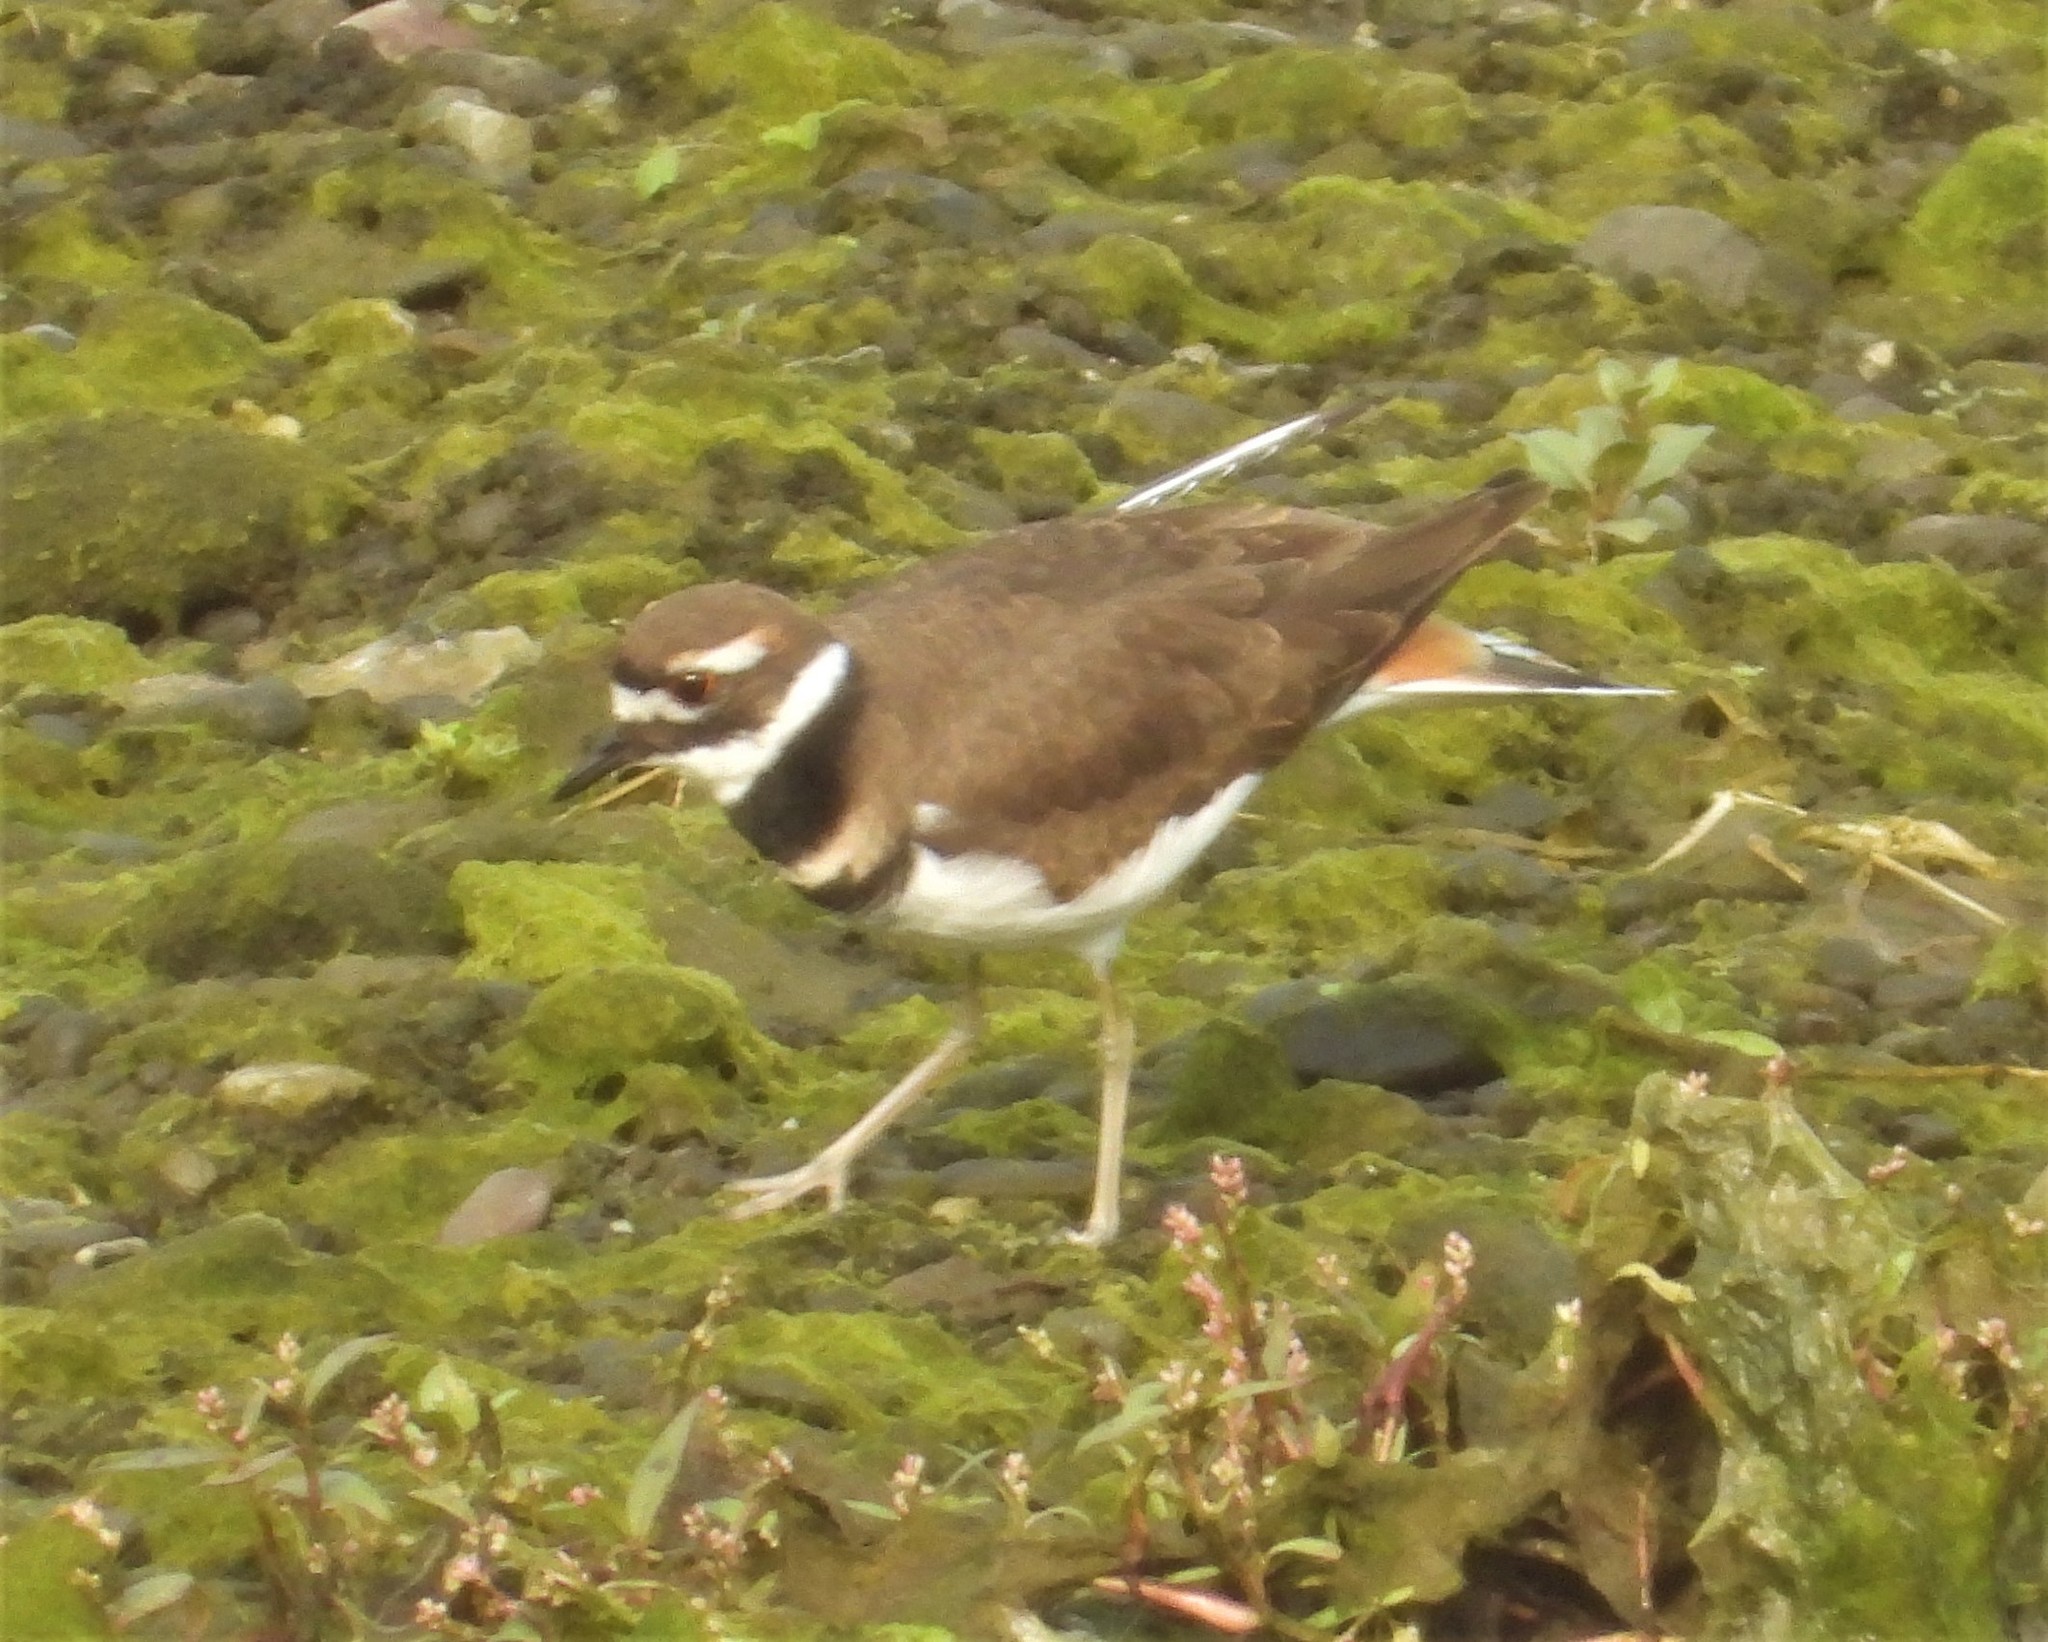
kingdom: Animalia
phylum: Chordata
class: Aves
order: Charadriiformes
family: Charadriidae
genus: Charadrius
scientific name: Charadrius vociferus
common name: Killdeer
